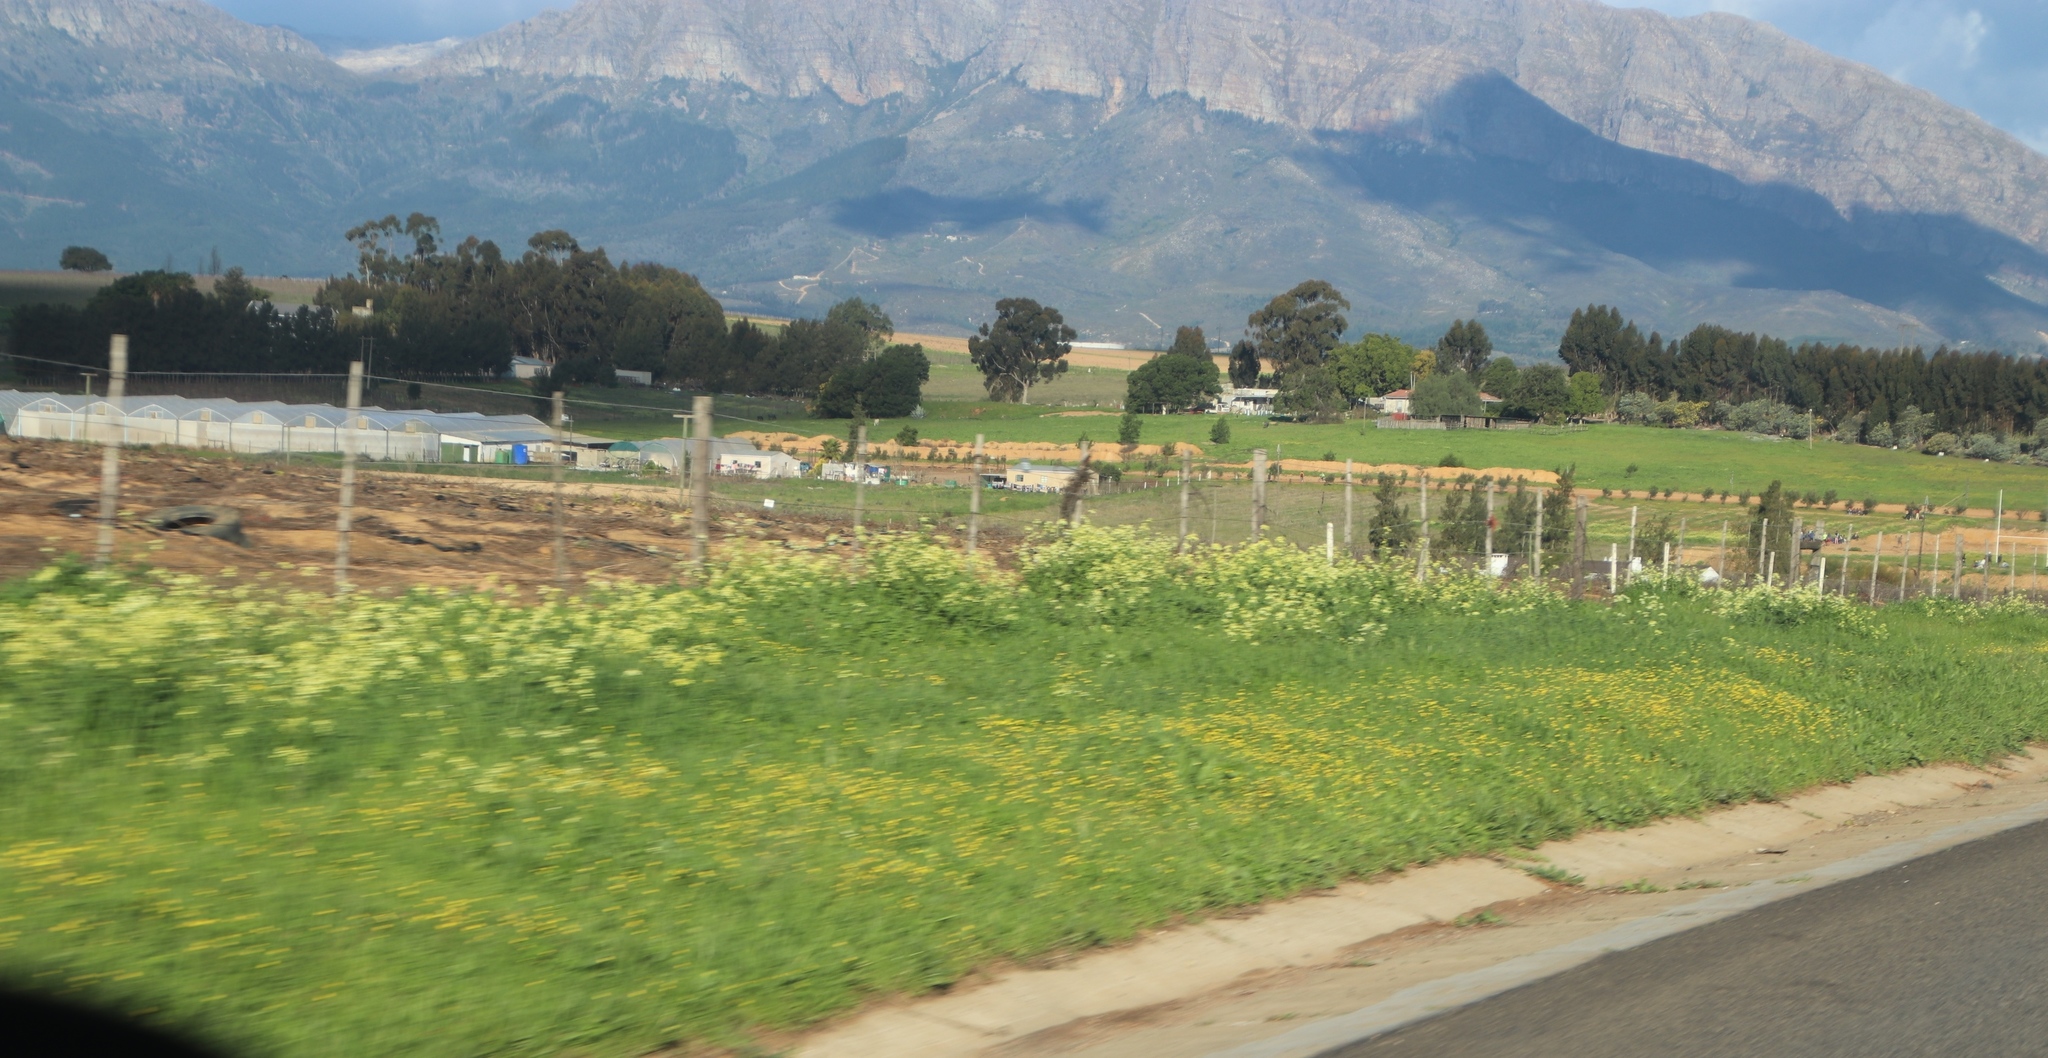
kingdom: Plantae
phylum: Tracheophyta
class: Magnoliopsida
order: Brassicales
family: Brassicaceae
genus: Raphanus
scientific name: Raphanus raphanistrum
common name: Wild radish
